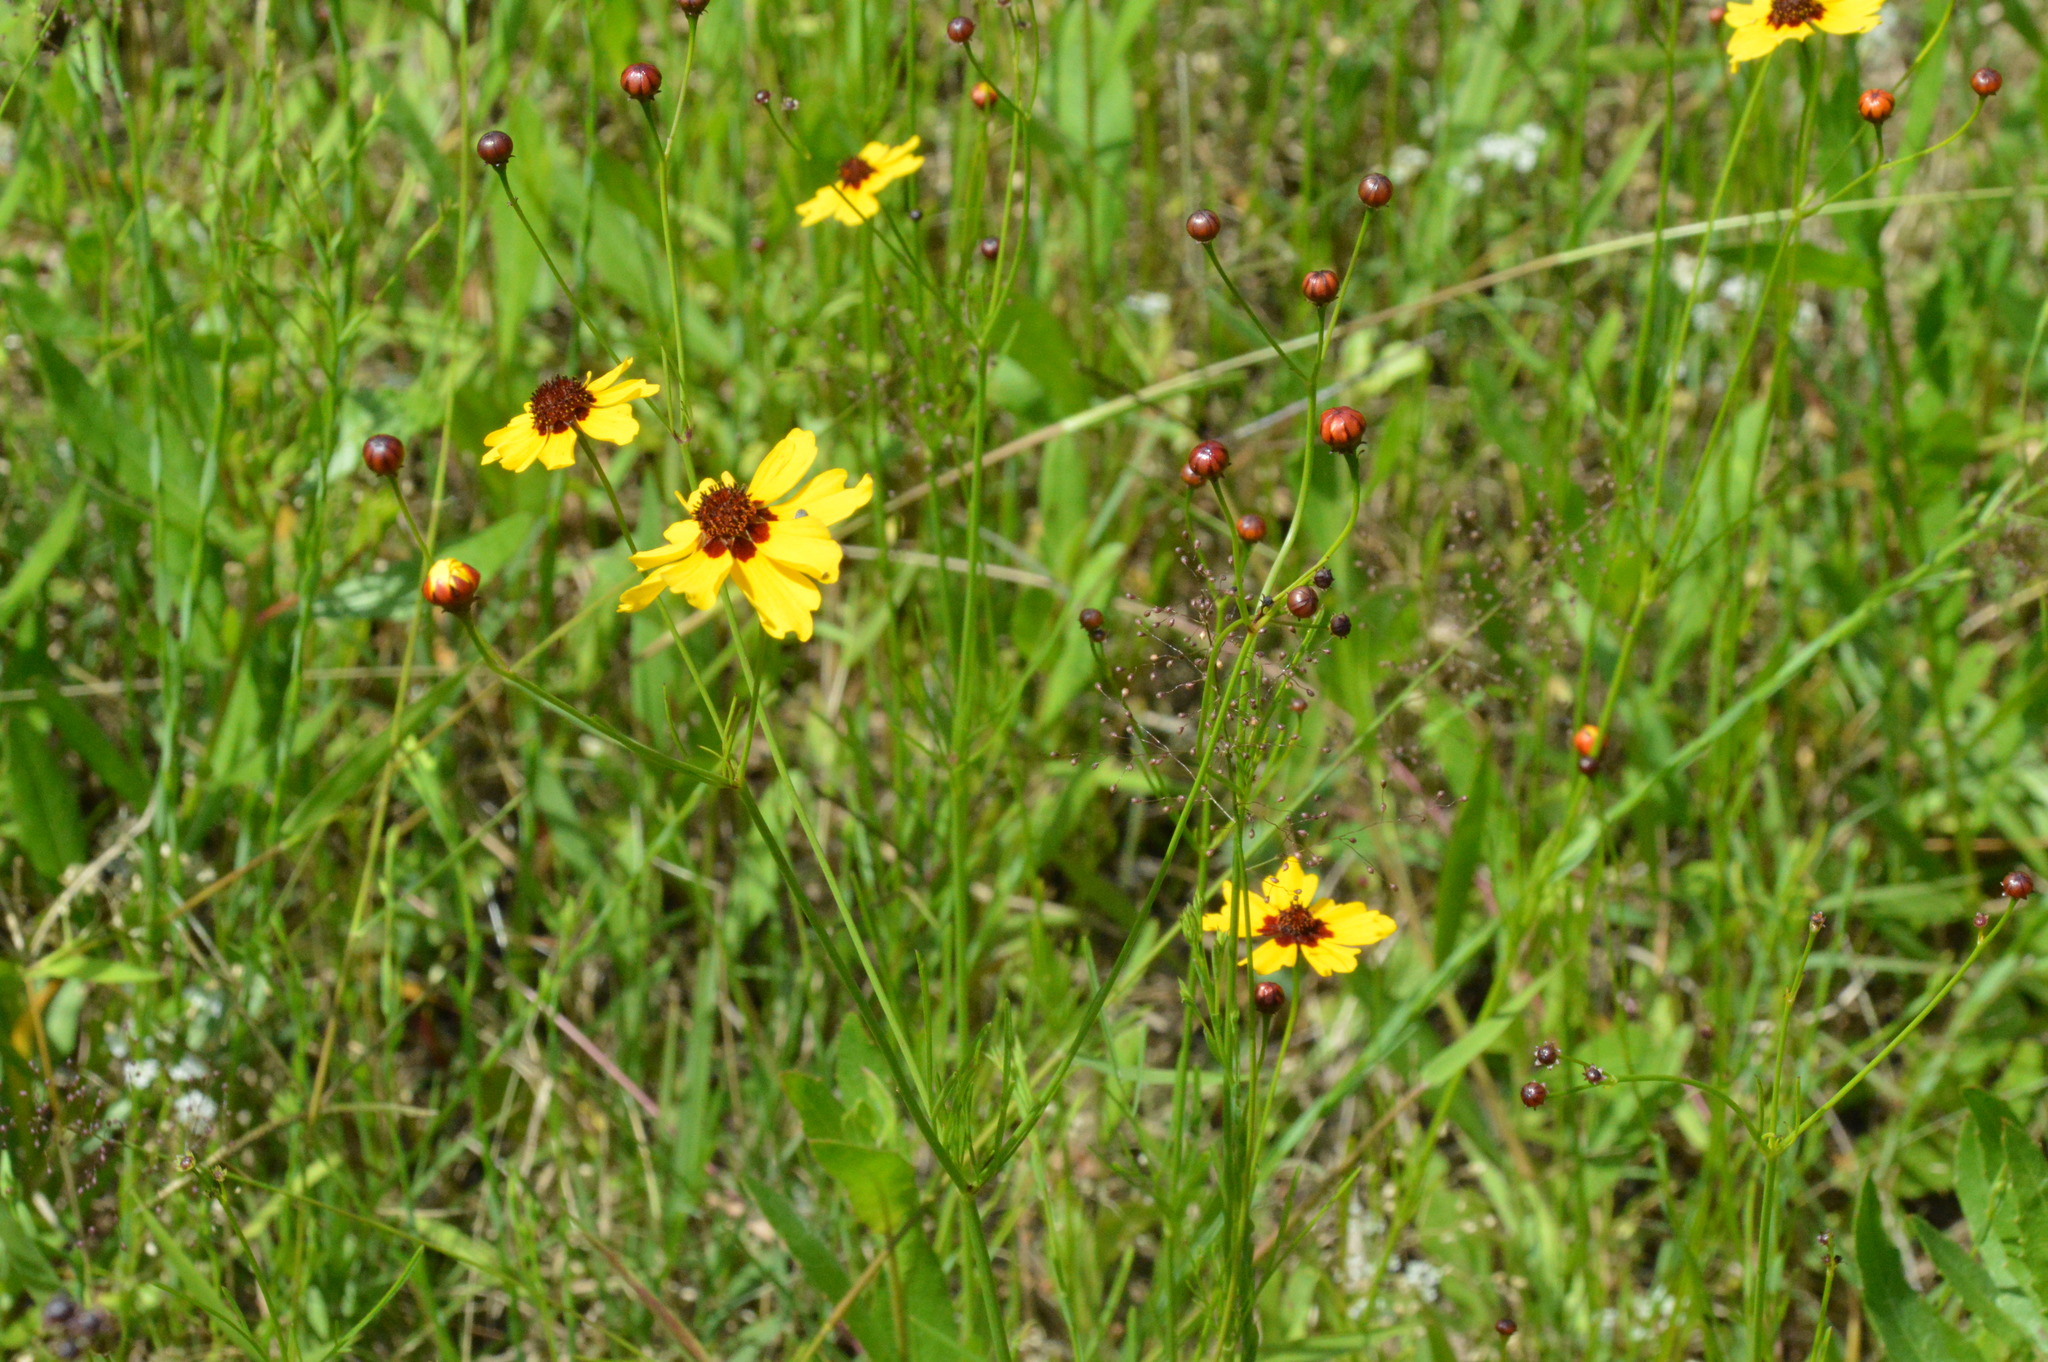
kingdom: Plantae
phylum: Tracheophyta
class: Magnoliopsida
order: Asterales
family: Asteraceae
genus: Coreopsis
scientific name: Coreopsis tinctoria
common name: Garden tickseed
